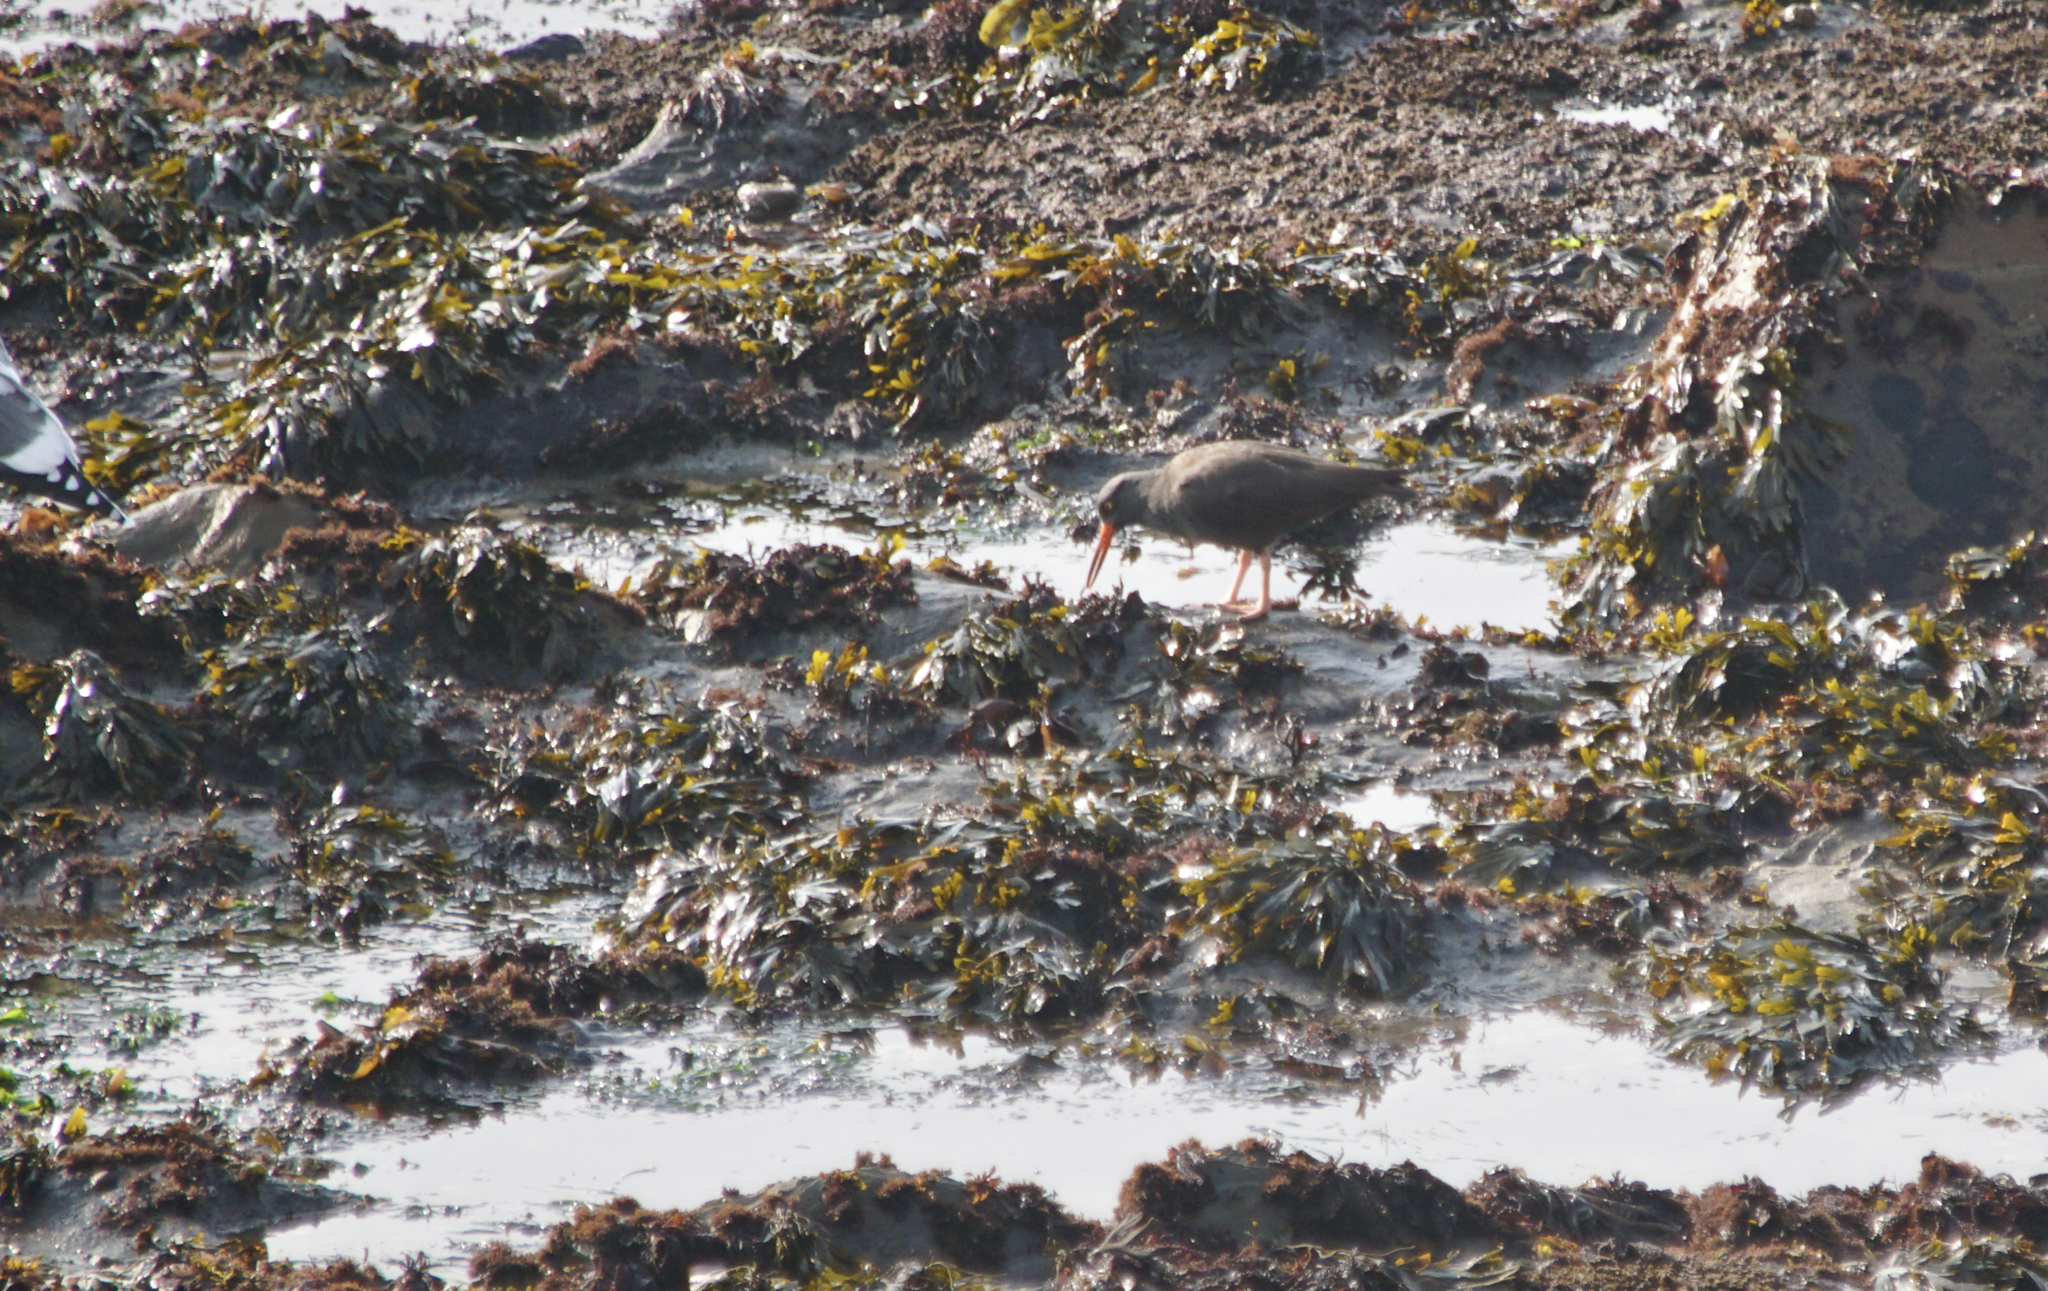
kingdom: Animalia
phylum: Chordata
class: Aves
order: Charadriiformes
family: Haematopodidae
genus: Haematopus
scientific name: Haematopus bachmani
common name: Black oystercatcher
